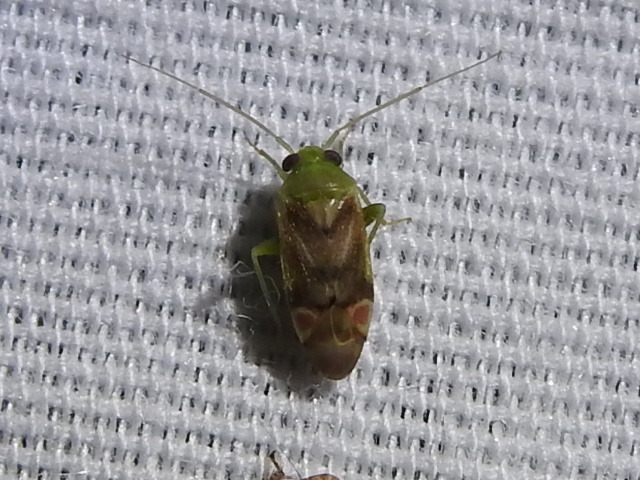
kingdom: Animalia
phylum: Arthropoda
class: Insecta
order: Hemiptera
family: Miridae
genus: Dichrooscytus
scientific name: Dichrooscytus
